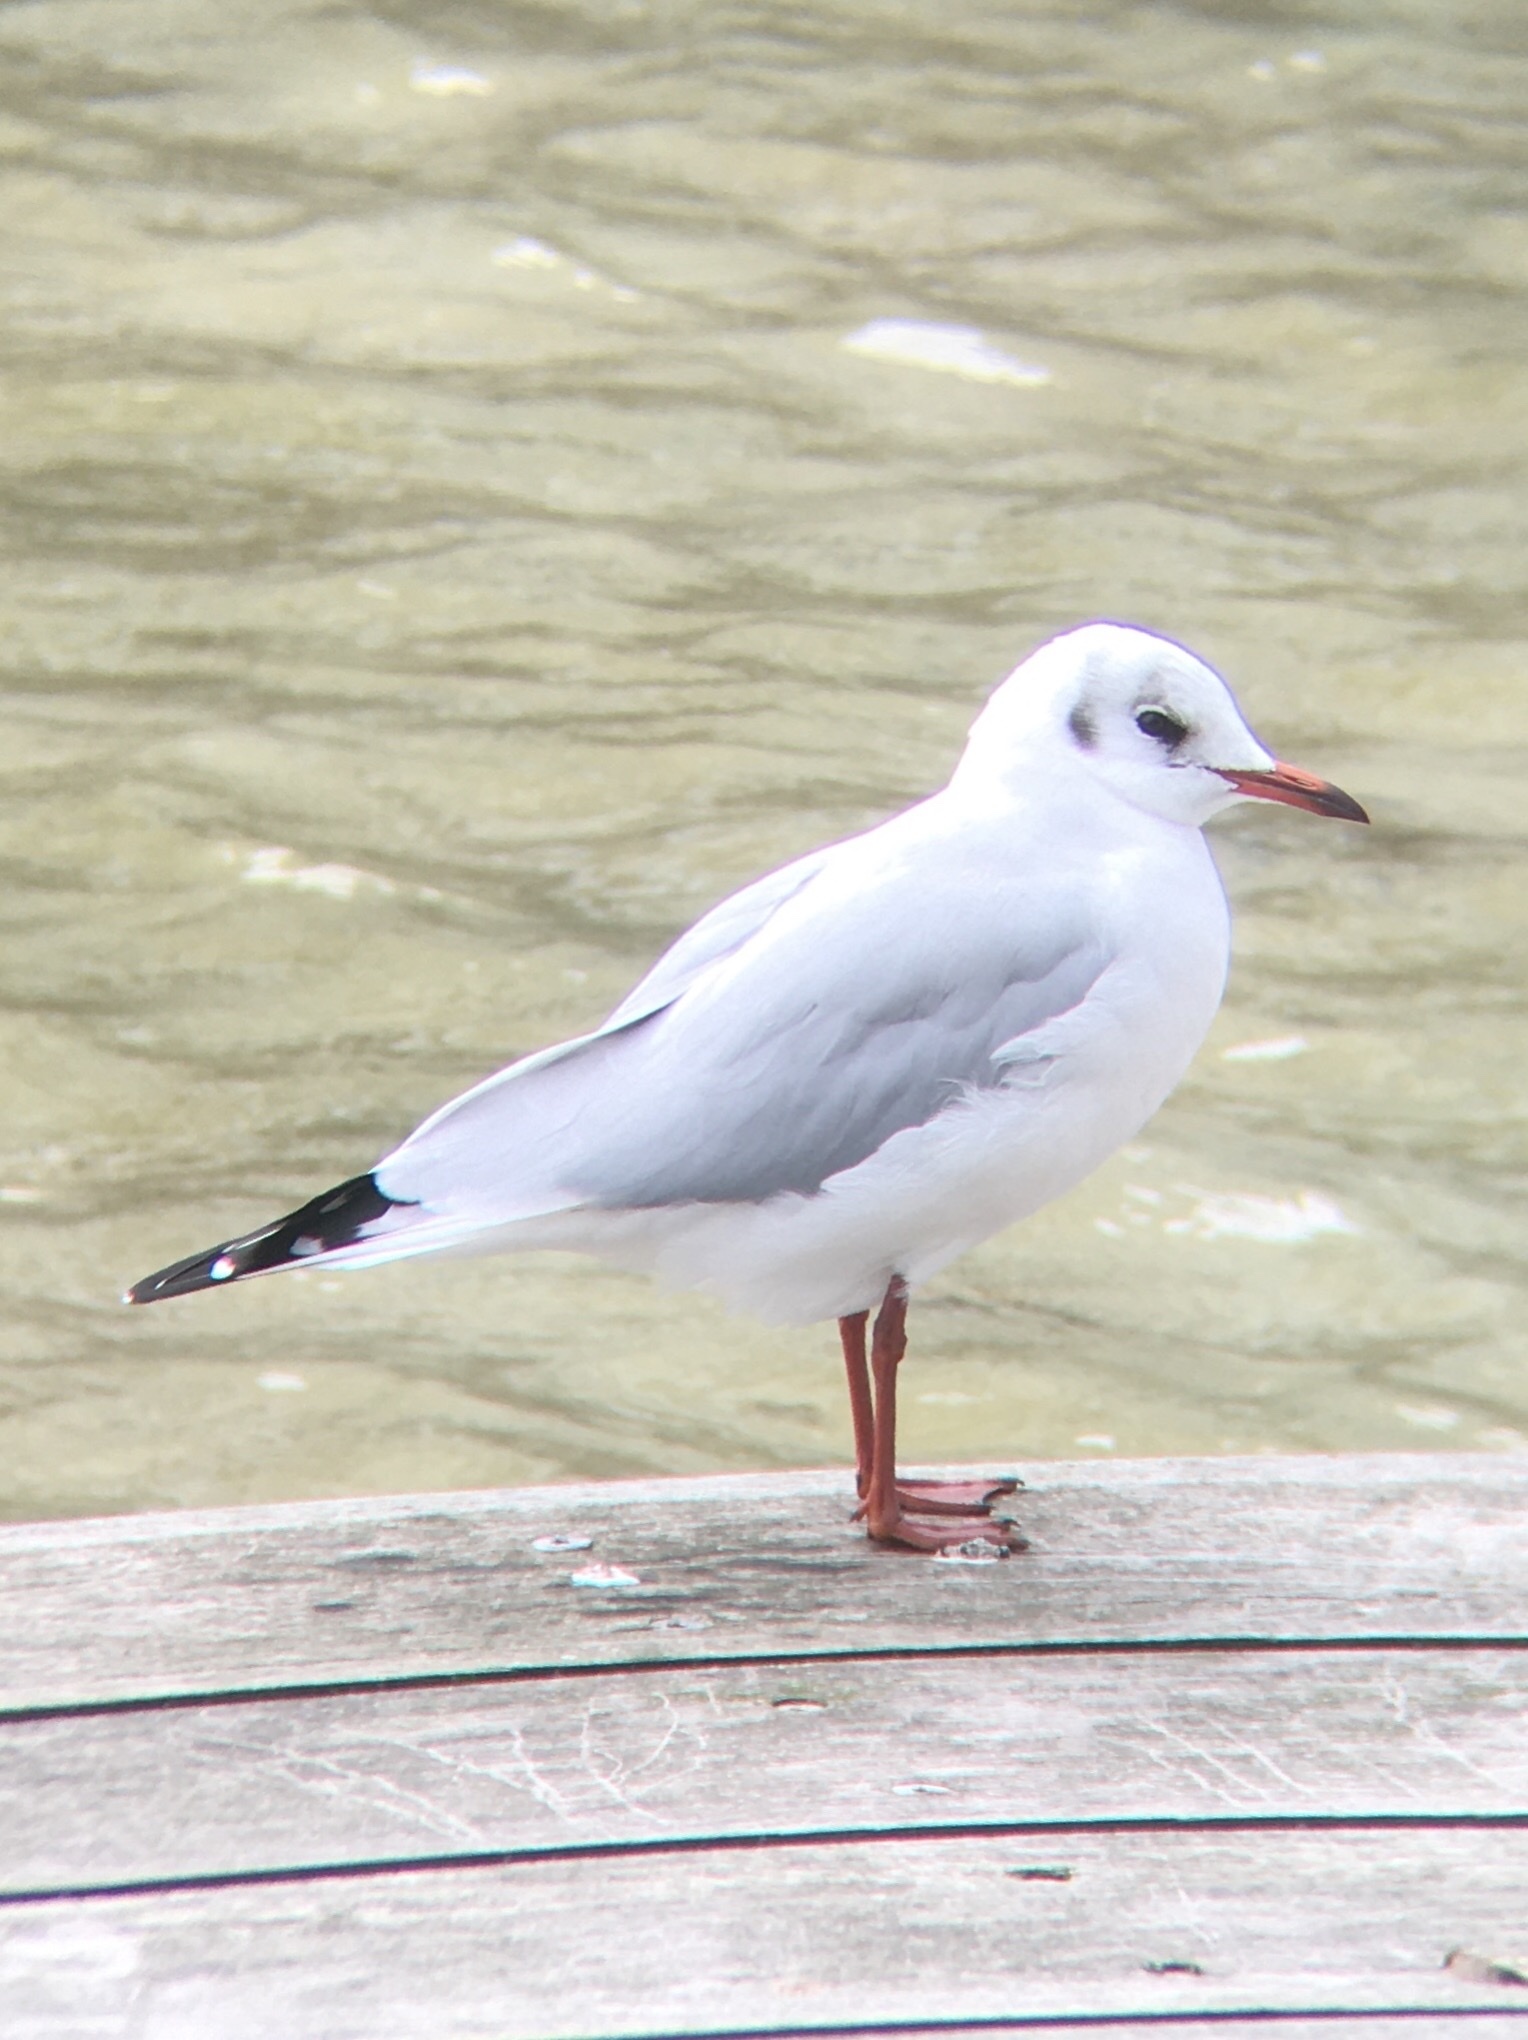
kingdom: Animalia
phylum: Chordata
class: Aves
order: Charadriiformes
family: Laridae
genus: Chroicocephalus
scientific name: Chroicocephalus ridibundus
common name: Black-headed gull
